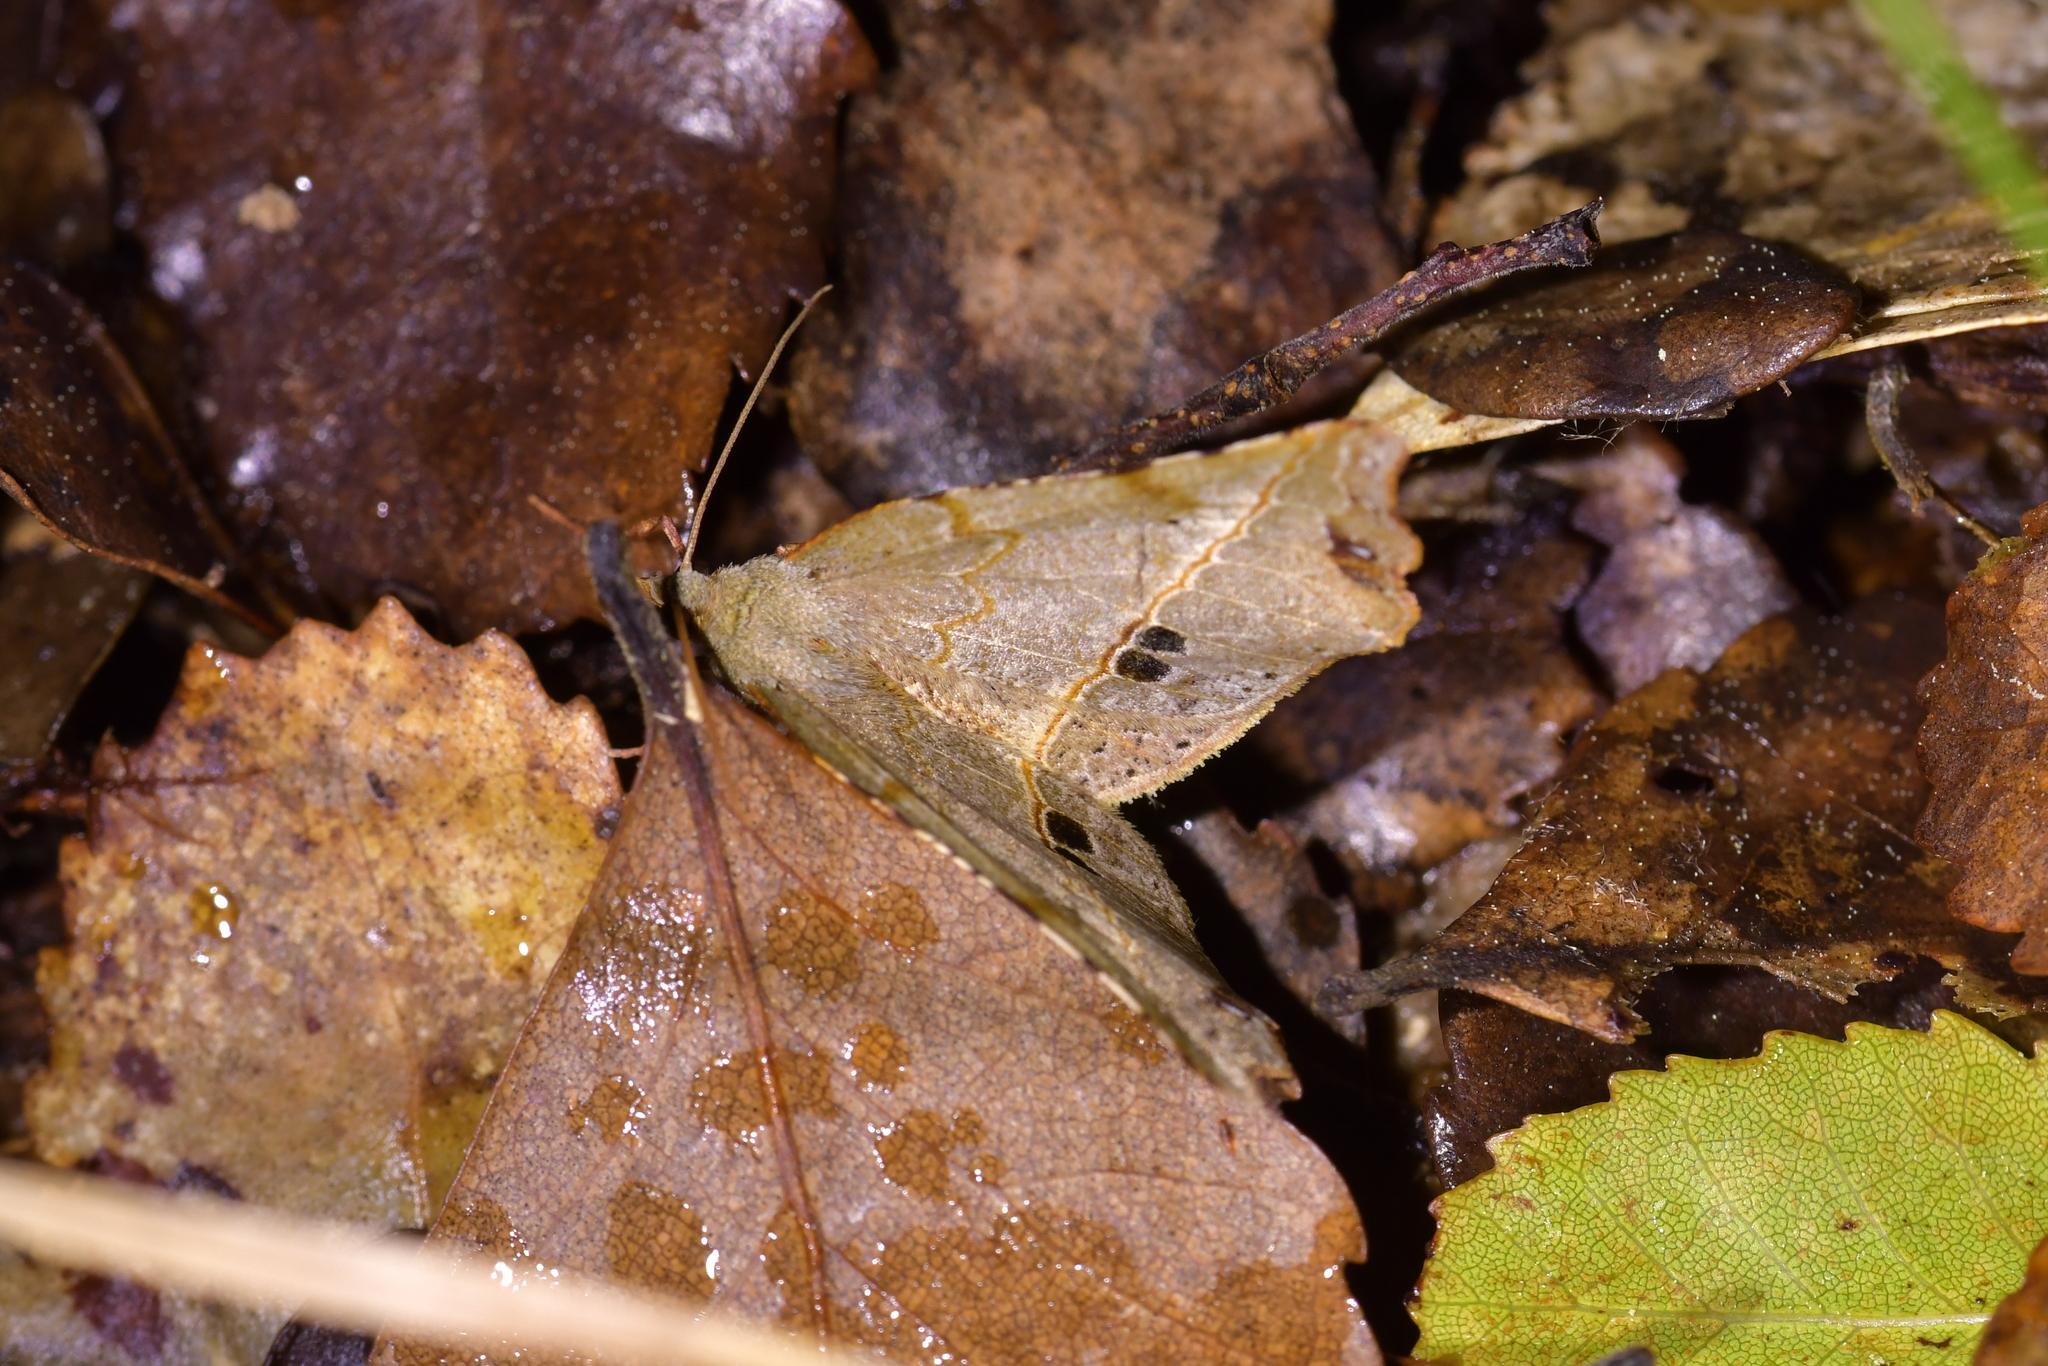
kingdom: Animalia
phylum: Arthropoda
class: Insecta
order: Lepidoptera
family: Geometridae
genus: Ischalis
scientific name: Ischalis gallaria
